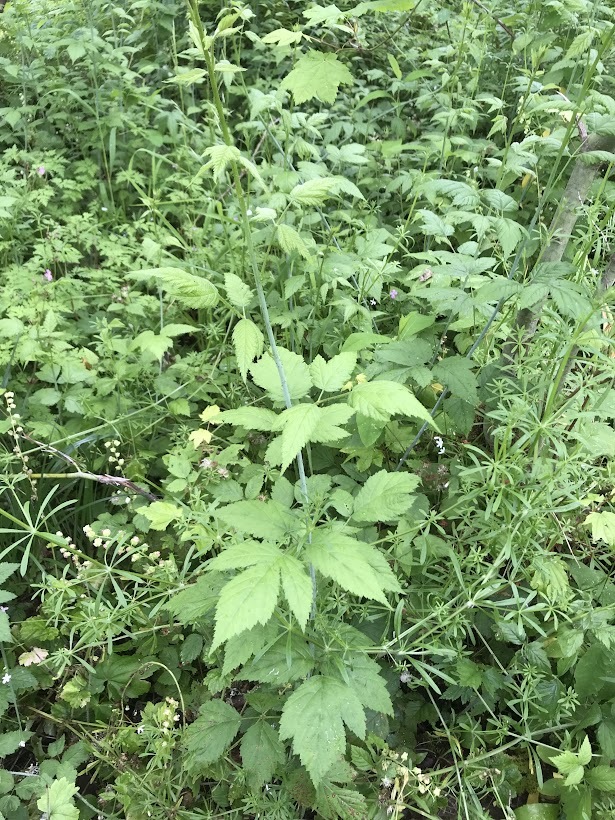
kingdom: Plantae
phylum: Tracheophyta
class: Magnoliopsida
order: Rosales
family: Rosaceae
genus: Rubus
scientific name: Rubus leucodermis
